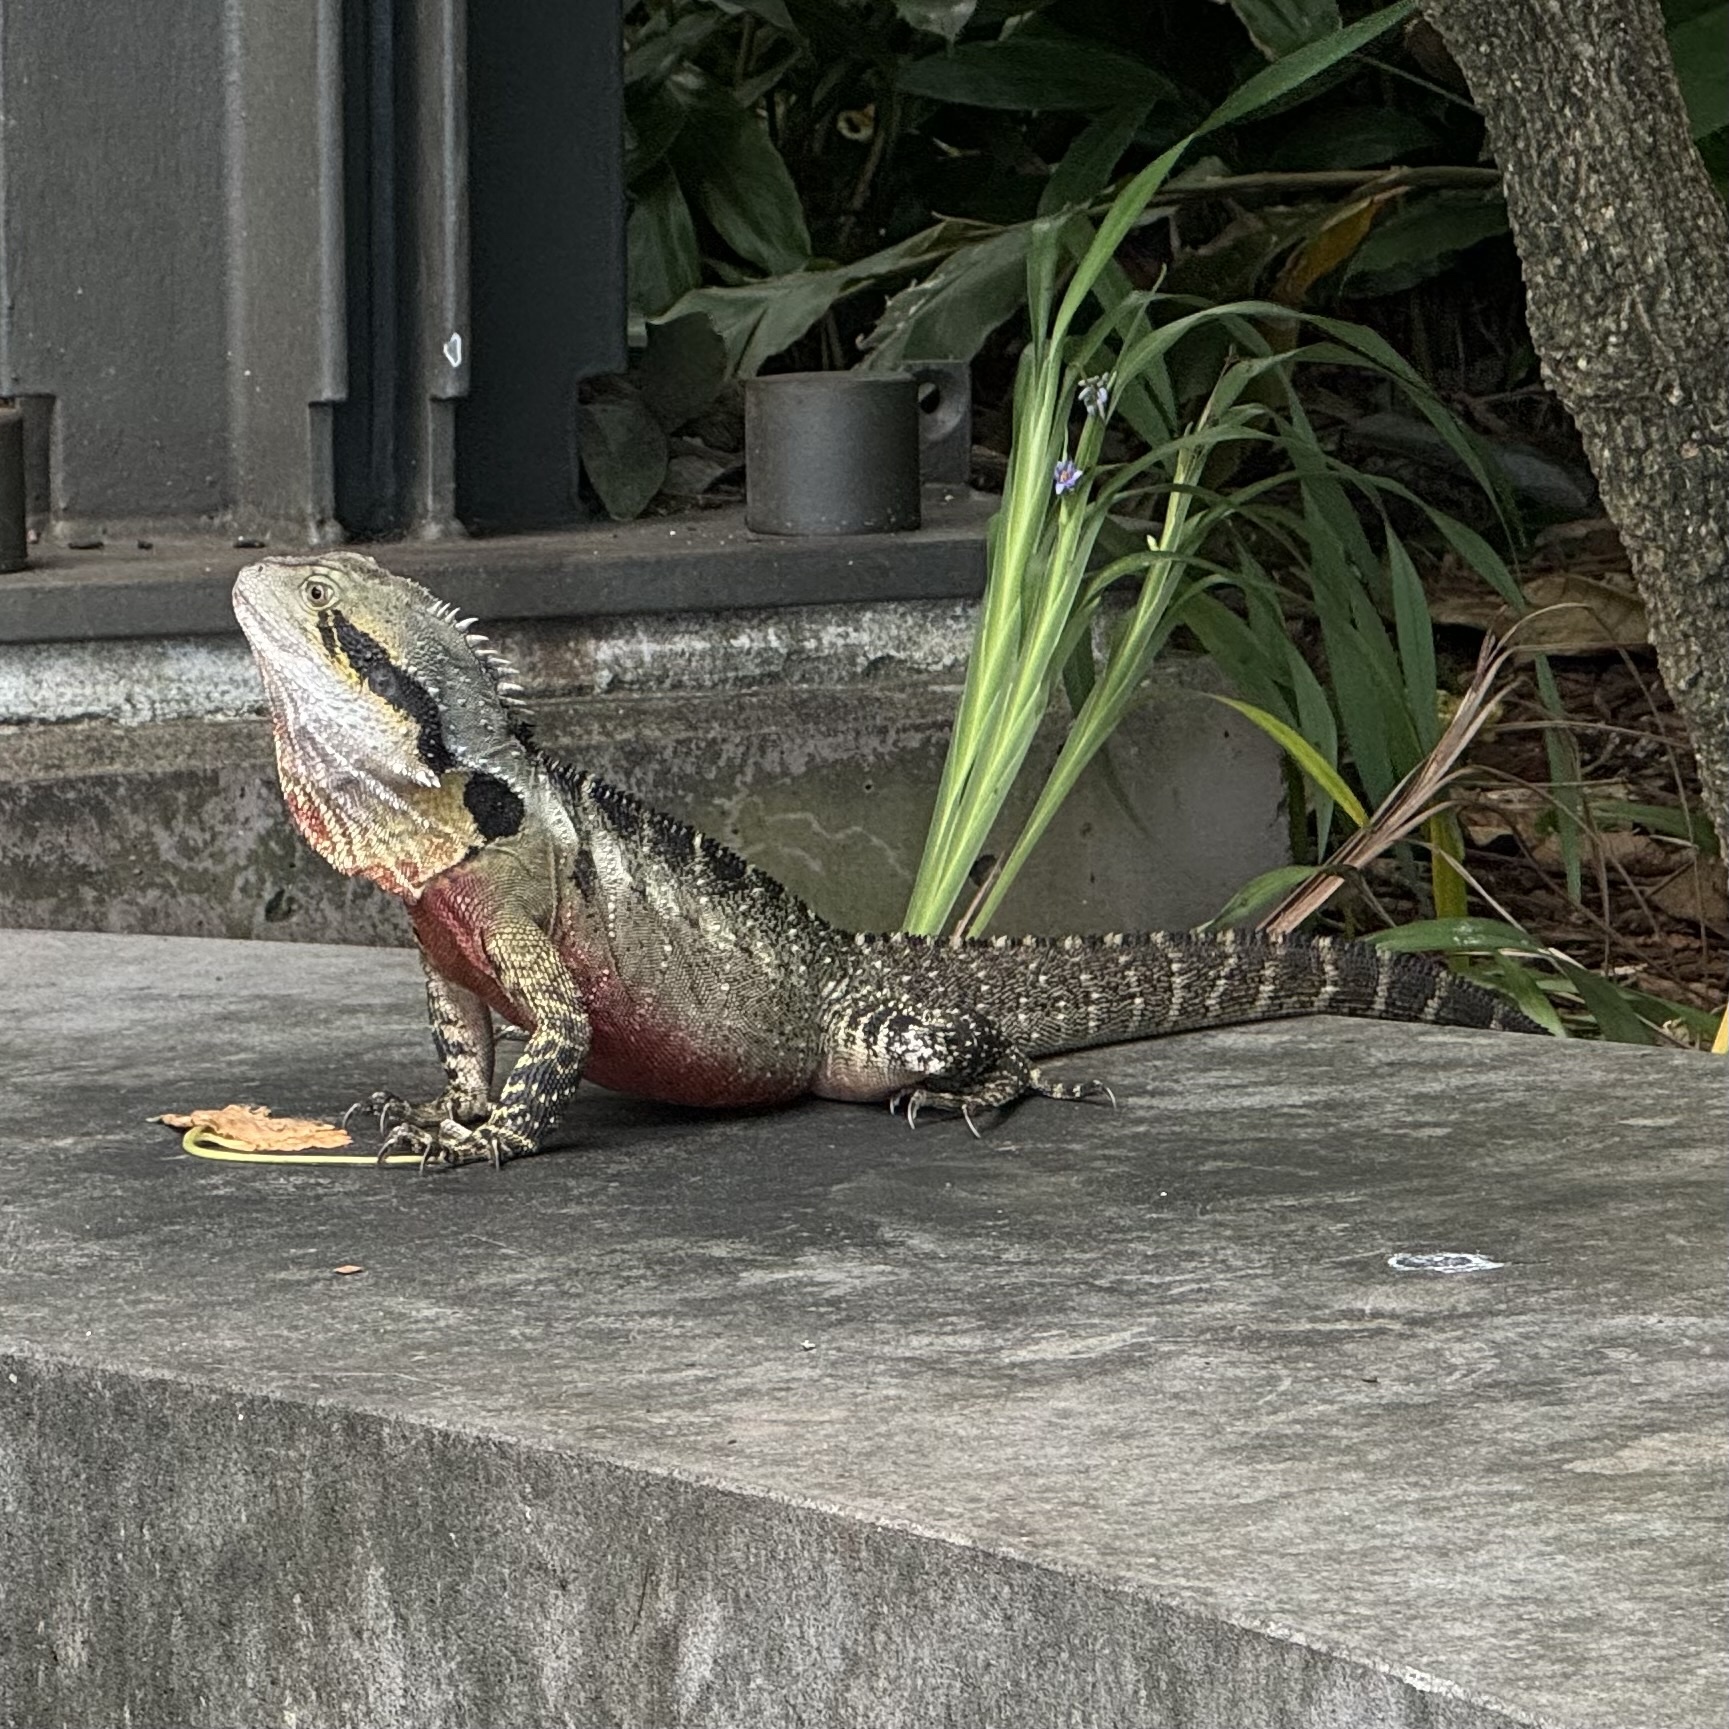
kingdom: Animalia
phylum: Chordata
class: Squamata
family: Agamidae
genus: Intellagama
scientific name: Intellagama lesueurii
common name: Eastern water dragon
